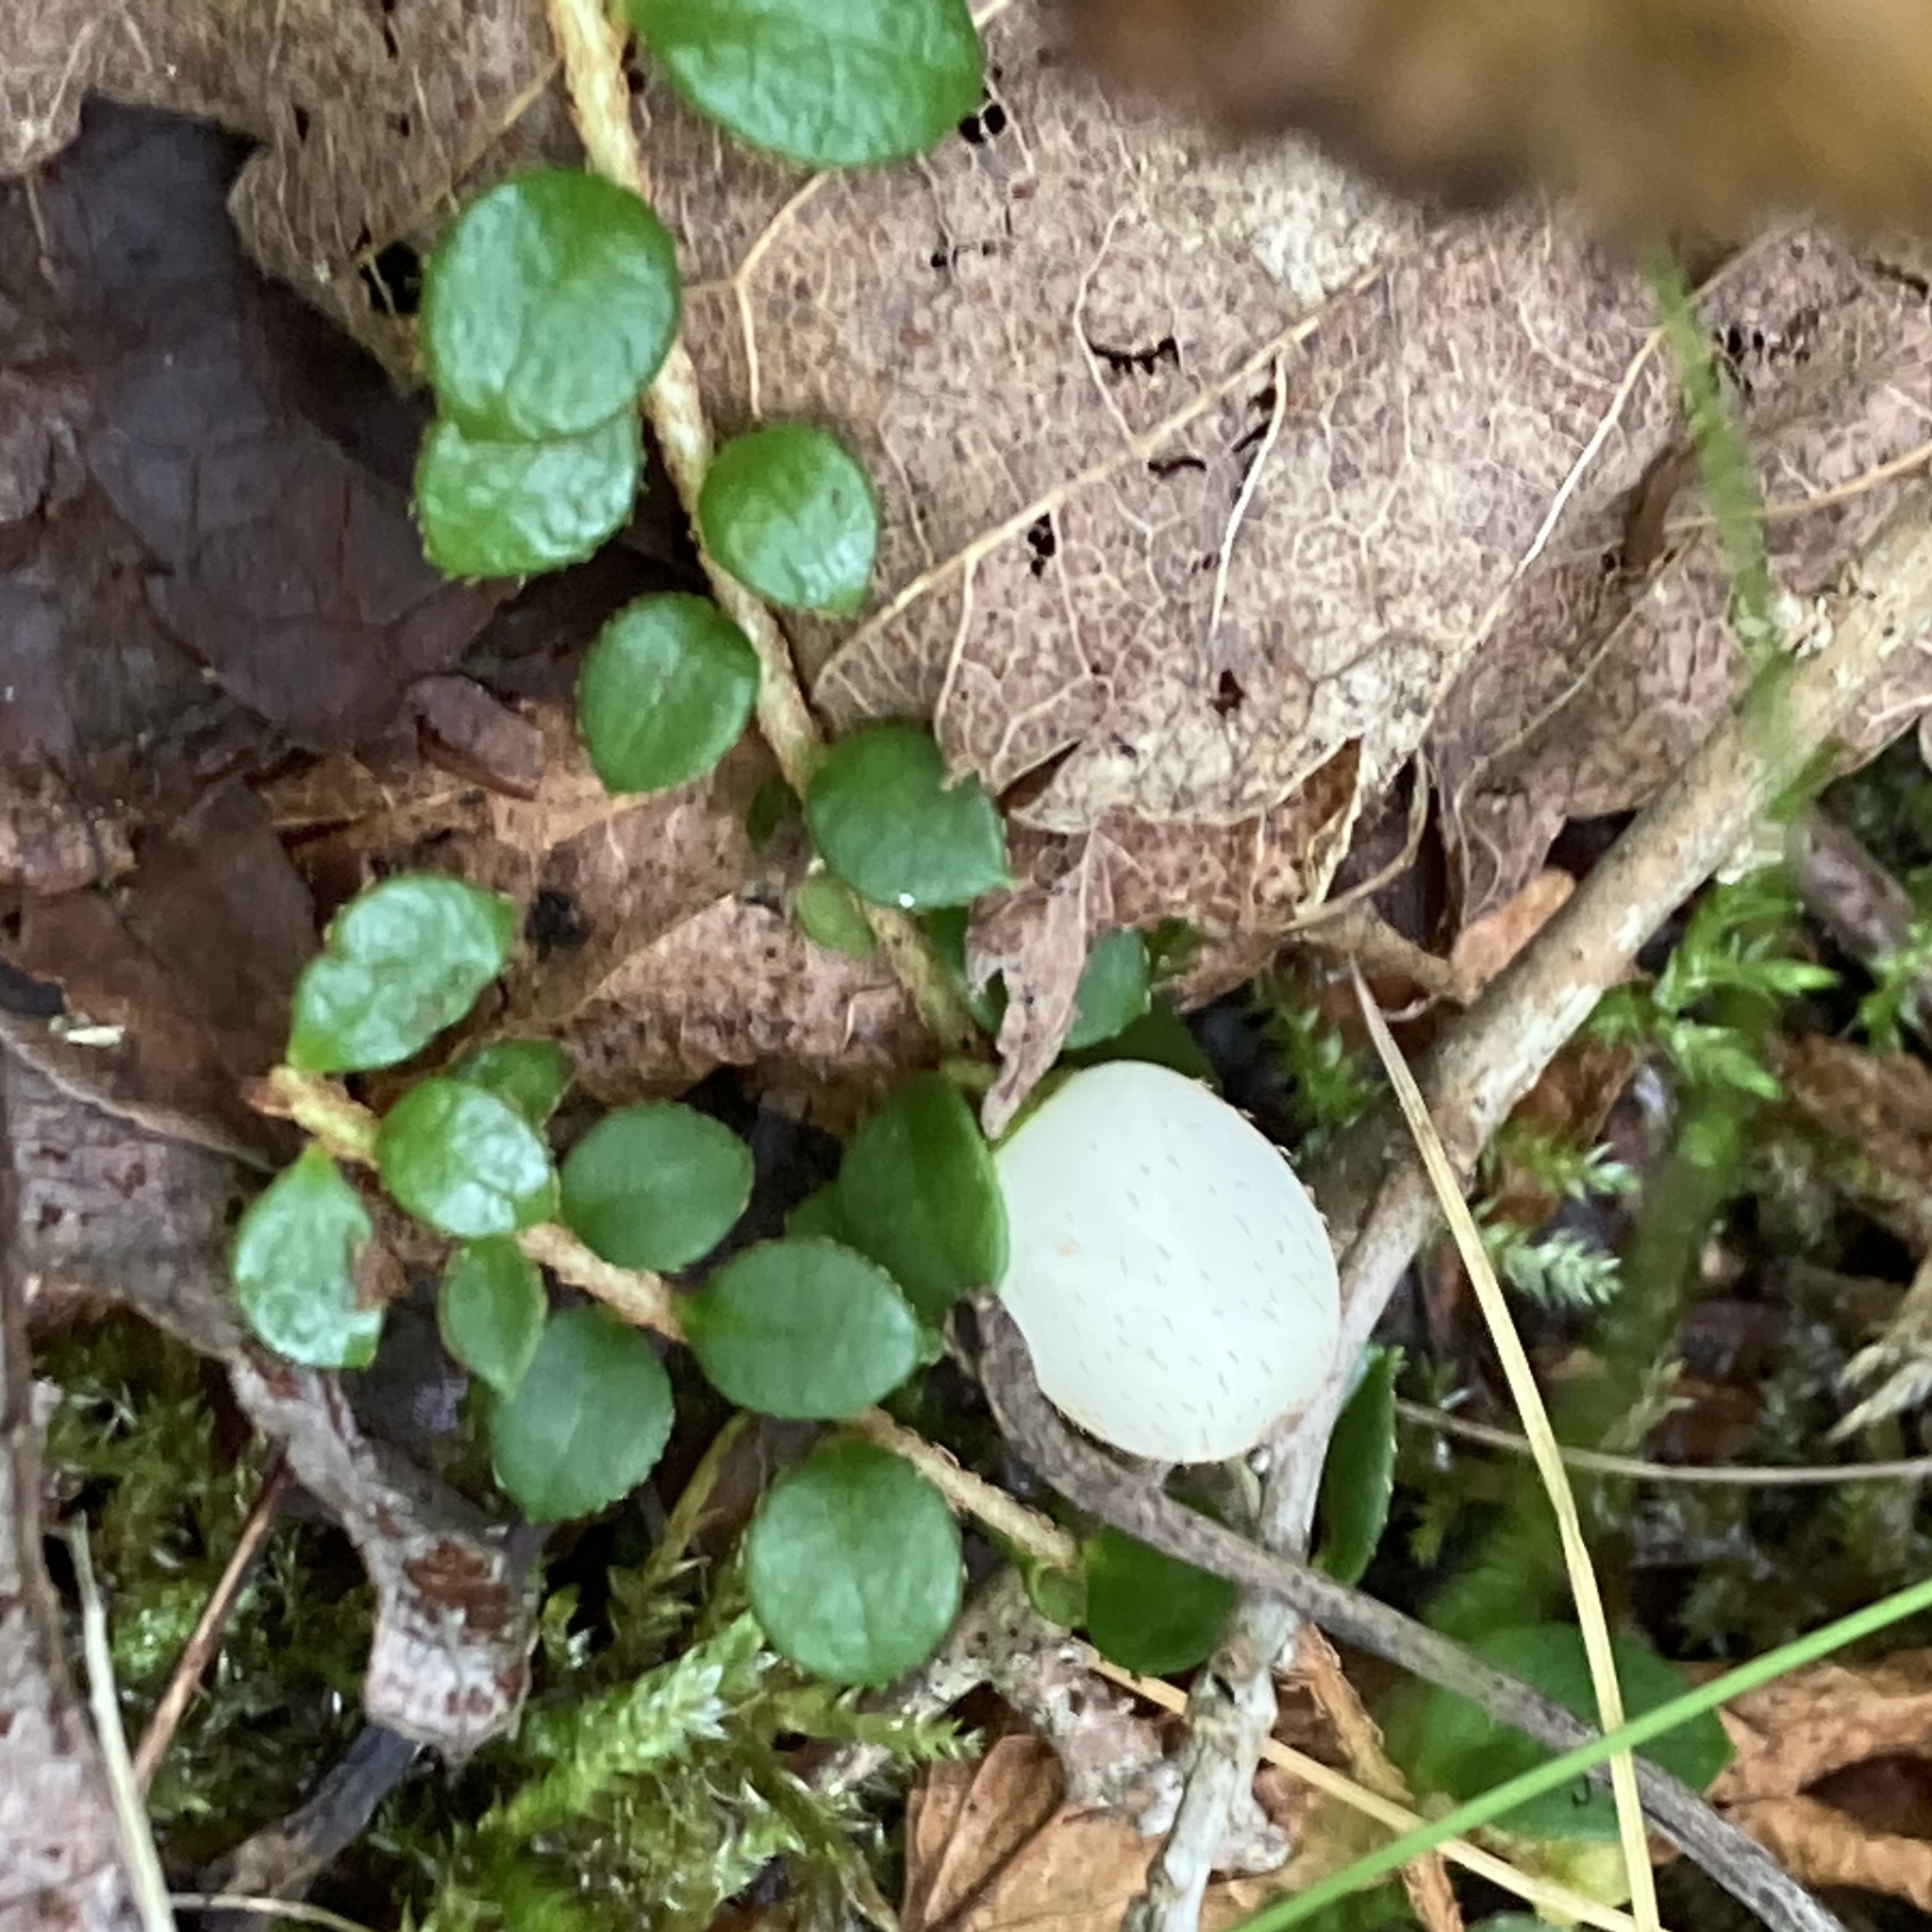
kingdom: Plantae
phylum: Tracheophyta
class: Magnoliopsida
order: Ericales
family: Ericaceae
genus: Gaultheria
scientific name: Gaultheria hispidula
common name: Cancer wintergreen
